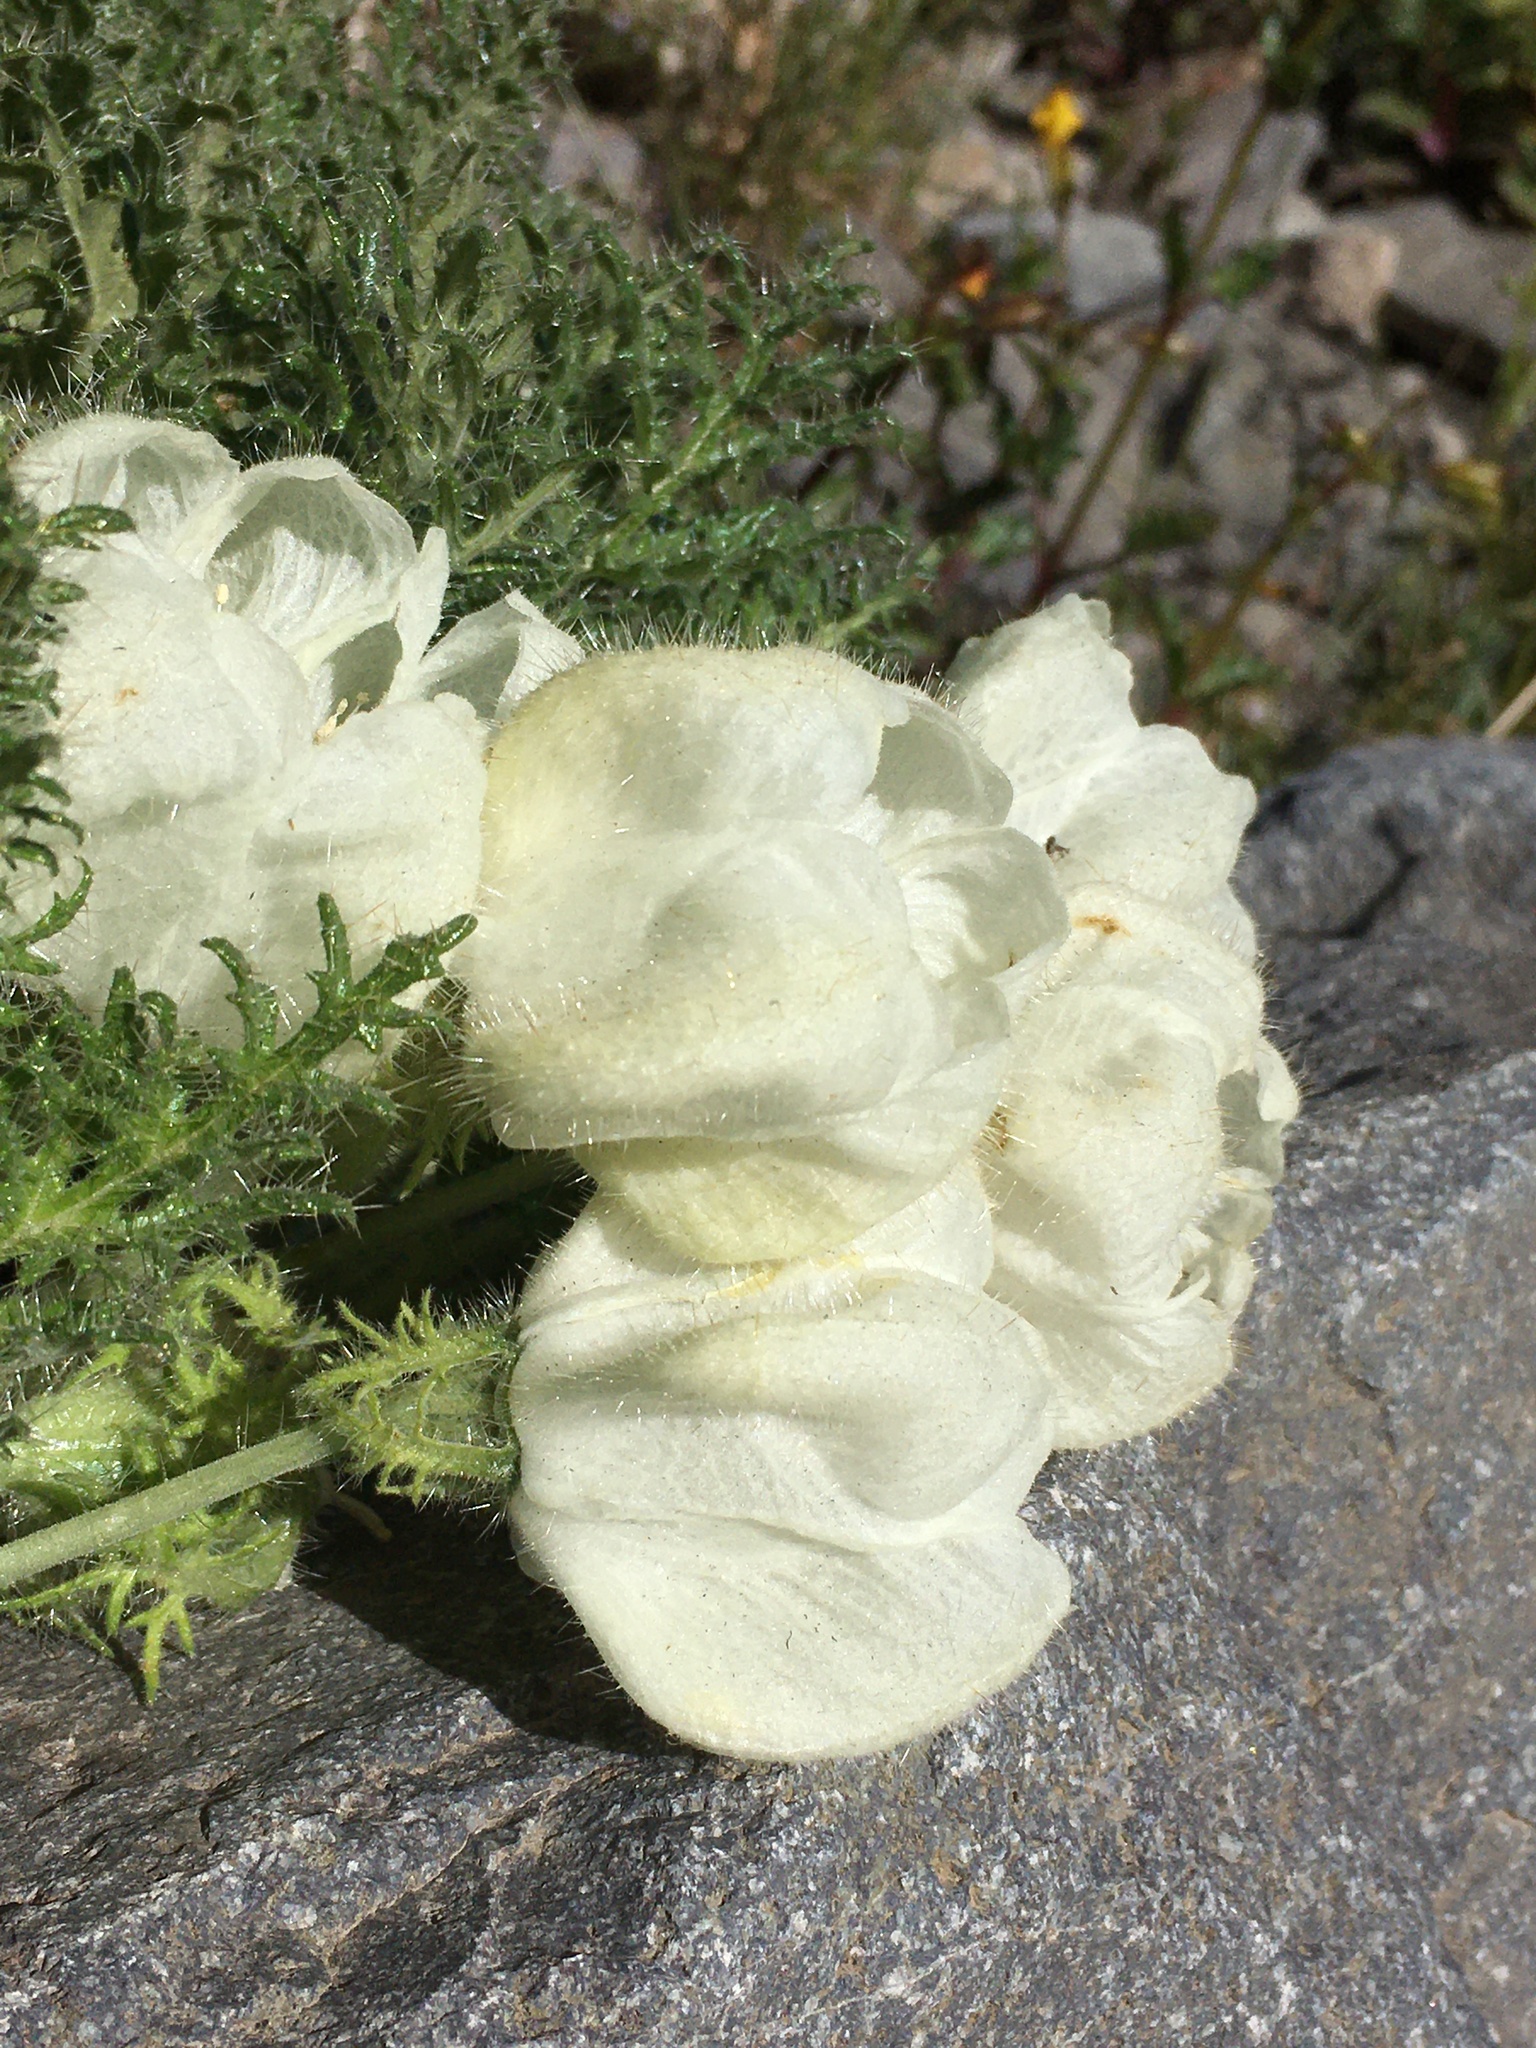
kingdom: Plantae
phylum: Tracheophyta
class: Magnoliopsida
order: Cornales
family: Loasaceae
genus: Caiophora
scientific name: Caiophora coronata
